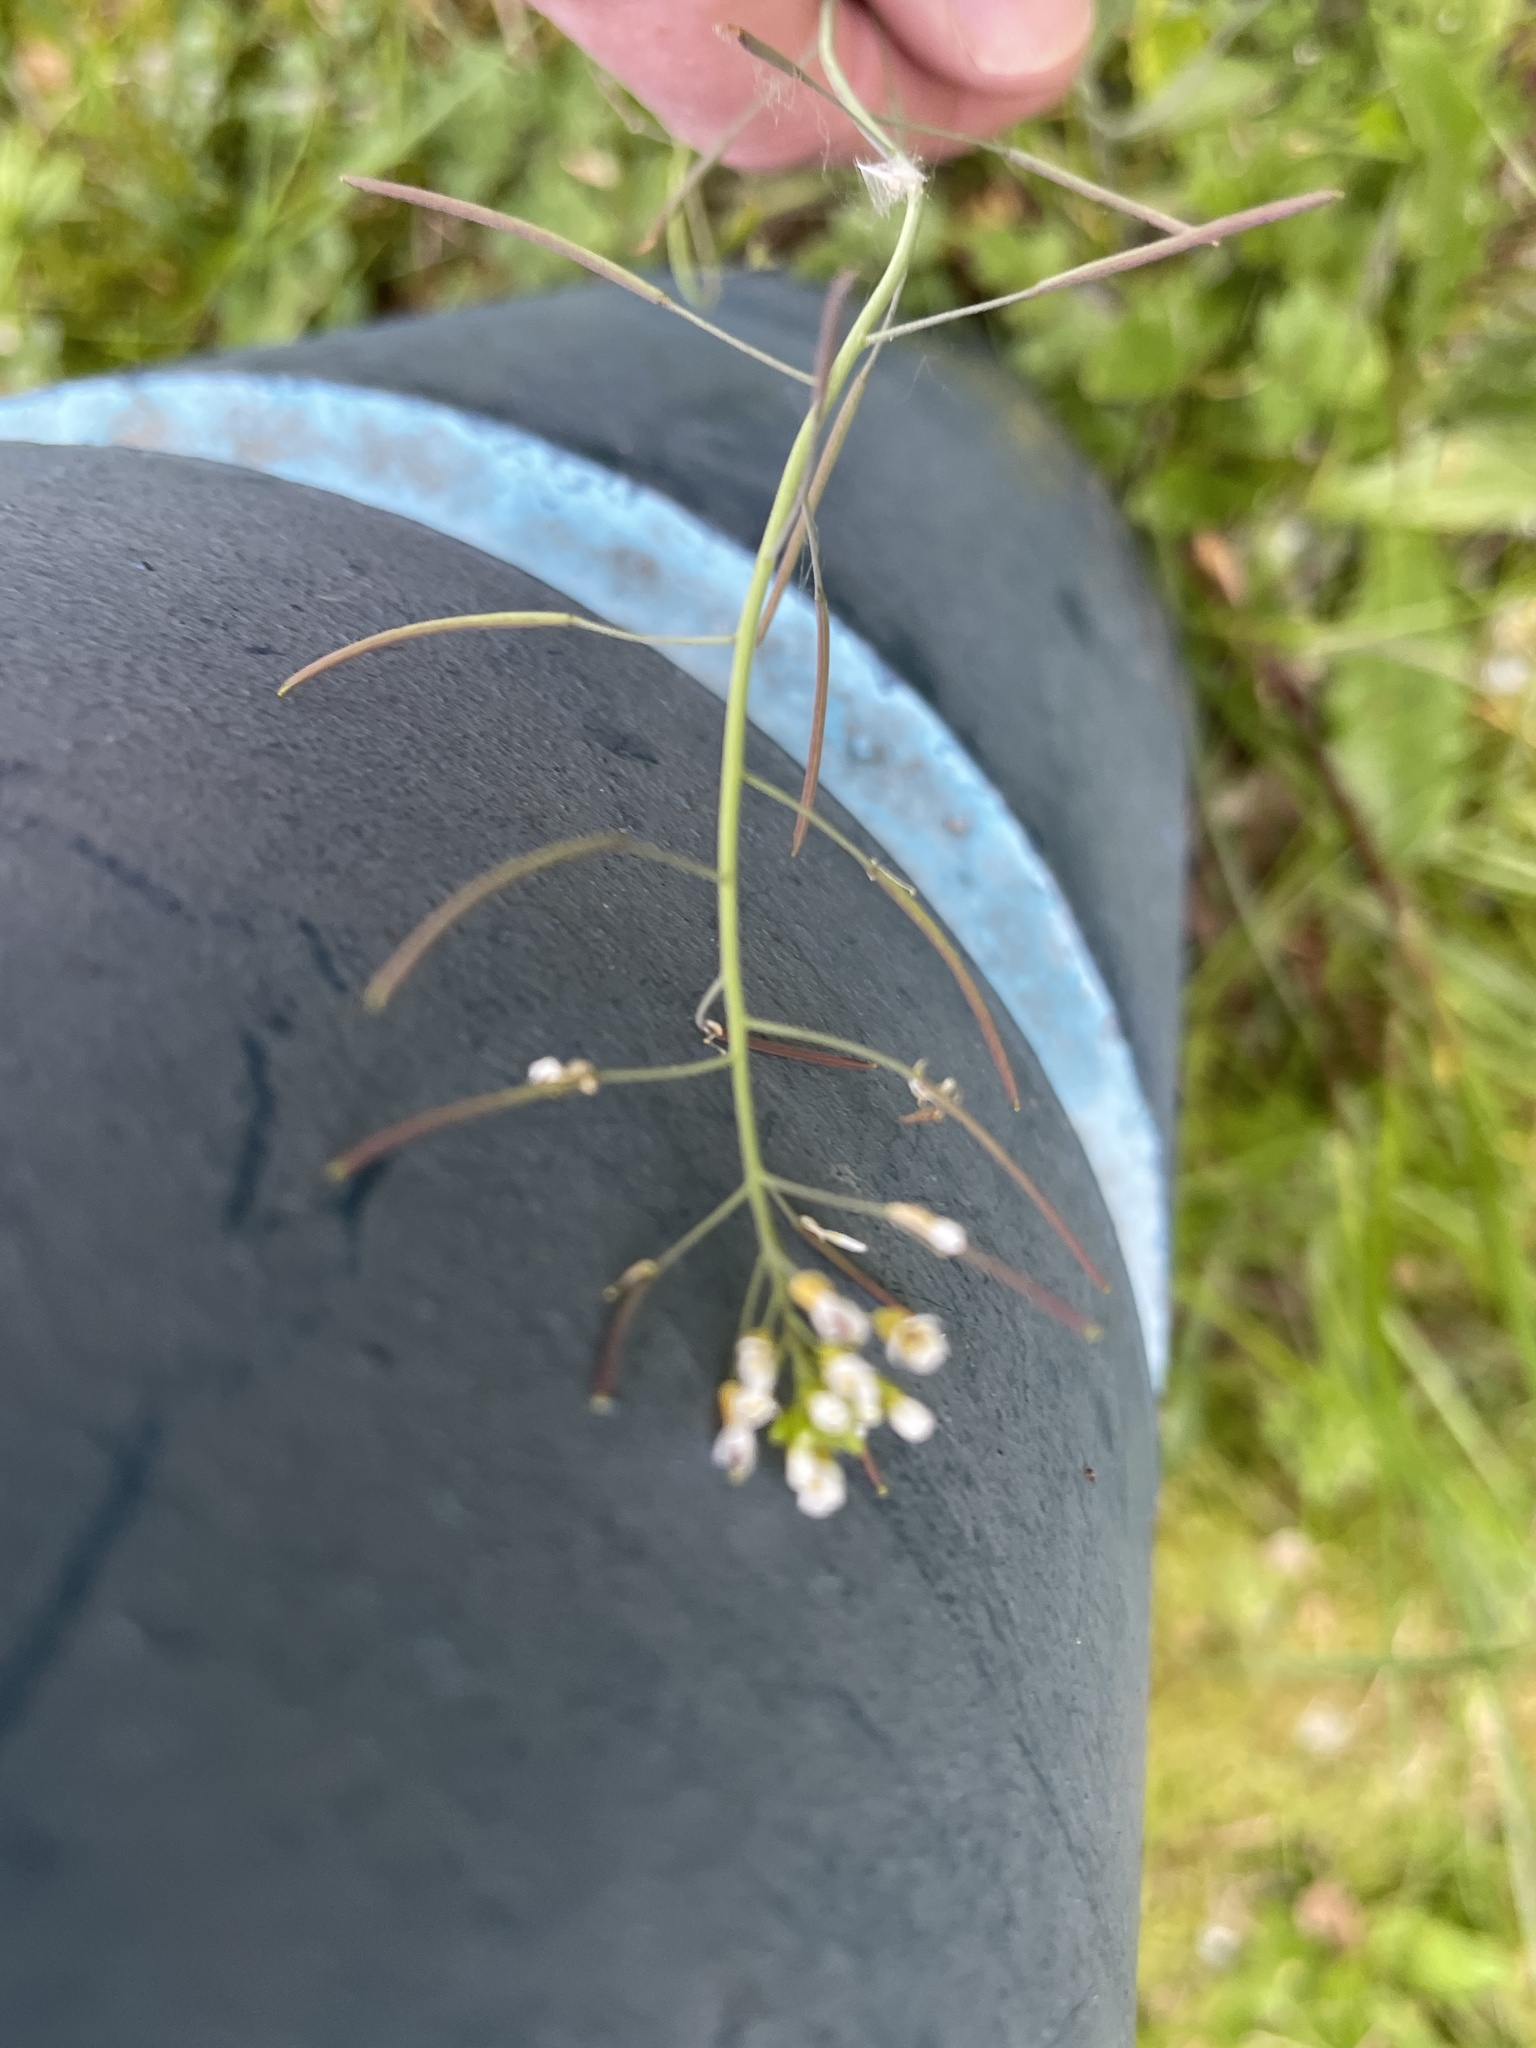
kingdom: Plantae
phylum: Tracheophyta
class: Magnoliopsida
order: Brassicales
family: Brassicaceae
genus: Arabidopsis
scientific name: Arabidopsis thaliana
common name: Thale cress
